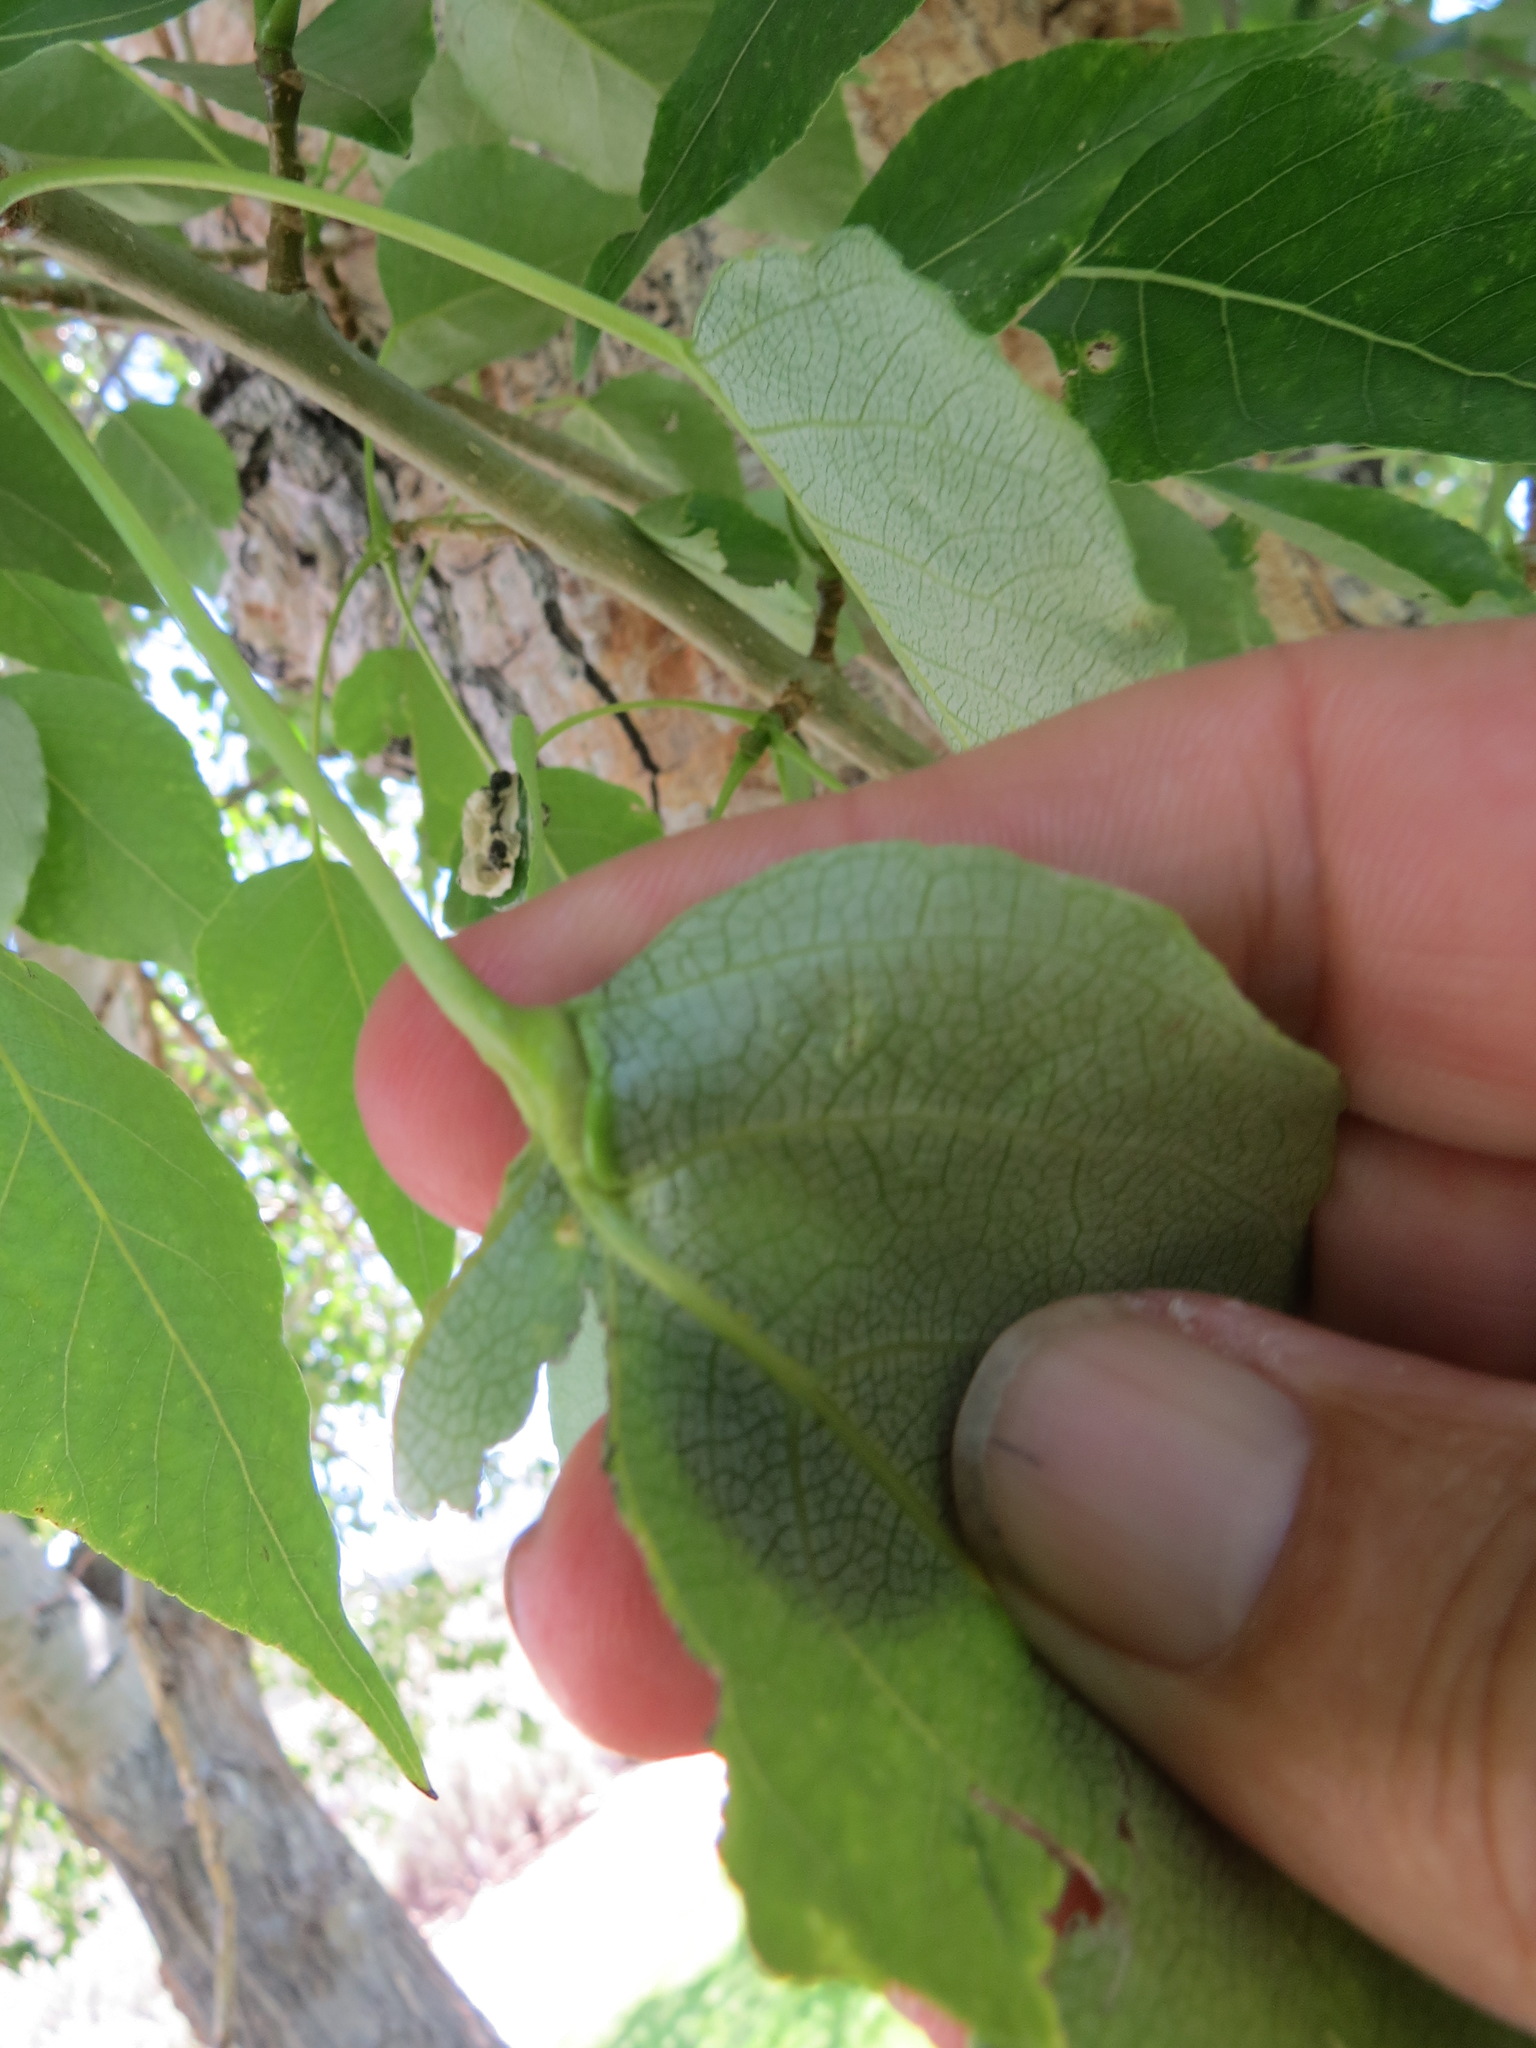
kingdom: Animalia
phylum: Arthropoda
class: Insecta
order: Hemiptera
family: Aphididae
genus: Pemphigus
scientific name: Pemphigus populi-globuli
